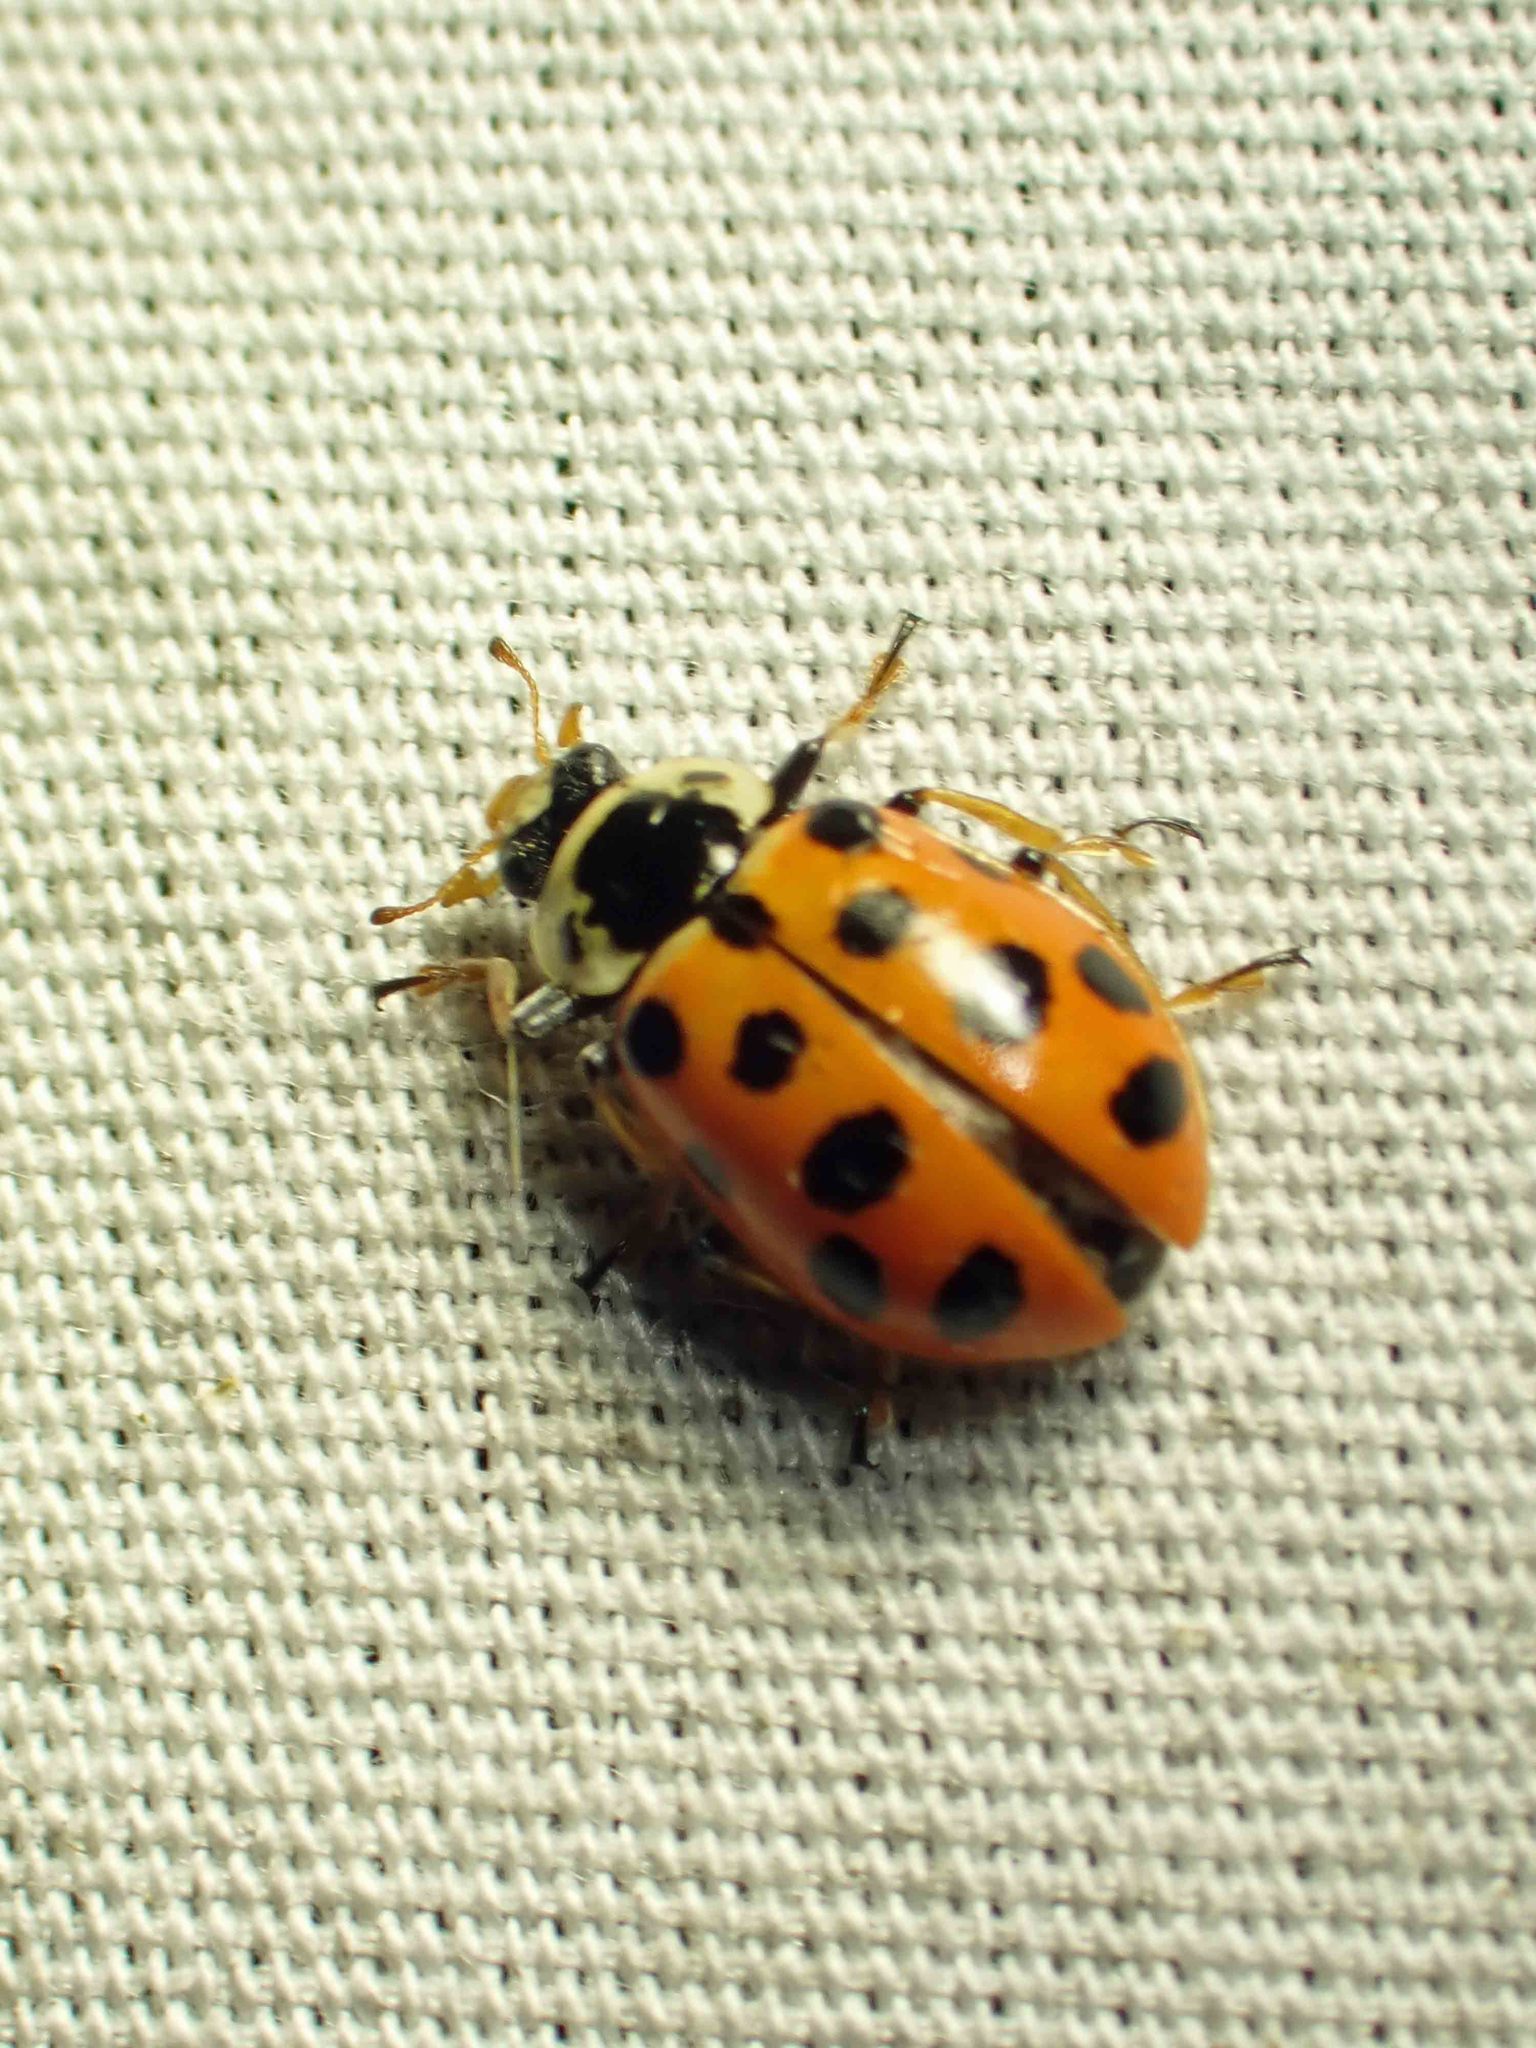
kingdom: Animalia
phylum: Arthropoda
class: Insecta
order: Coleoptera
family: Coccinellidae
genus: Hippodamia
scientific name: Hippodamia tredecimpunctata
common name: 13-spot ladybird
